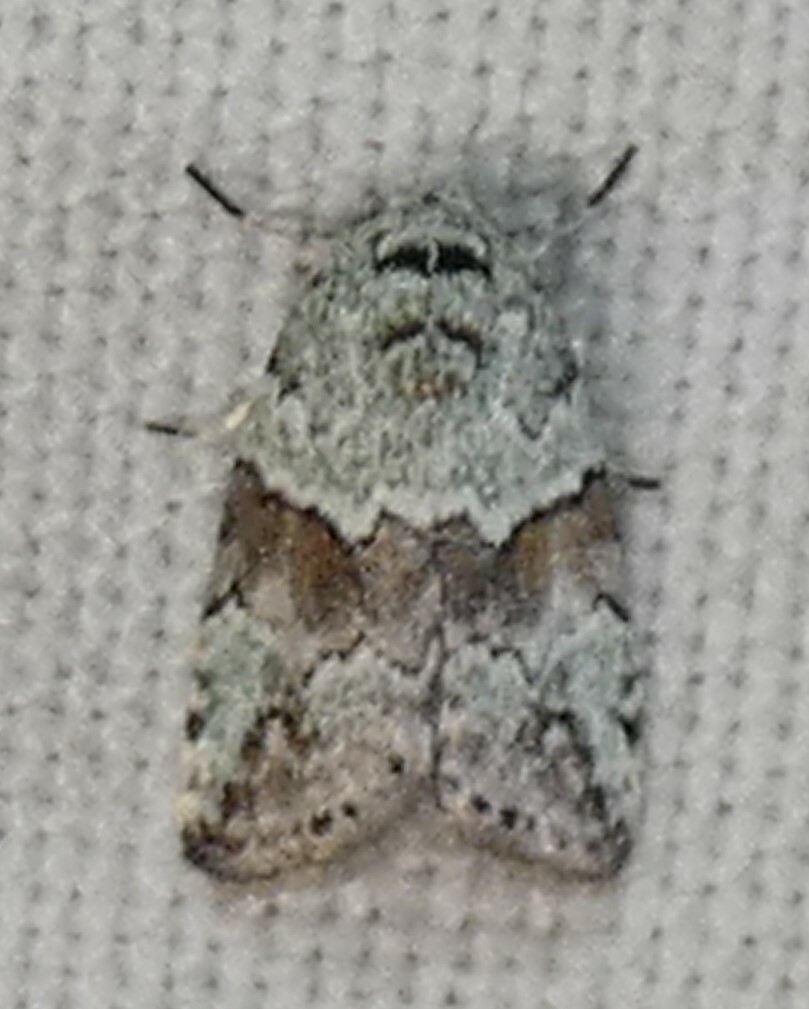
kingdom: Animalia
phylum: Arthropoda
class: Insecta
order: Lepidoptera
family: Nolidae
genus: Afrida
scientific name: Afrida ydatodes
